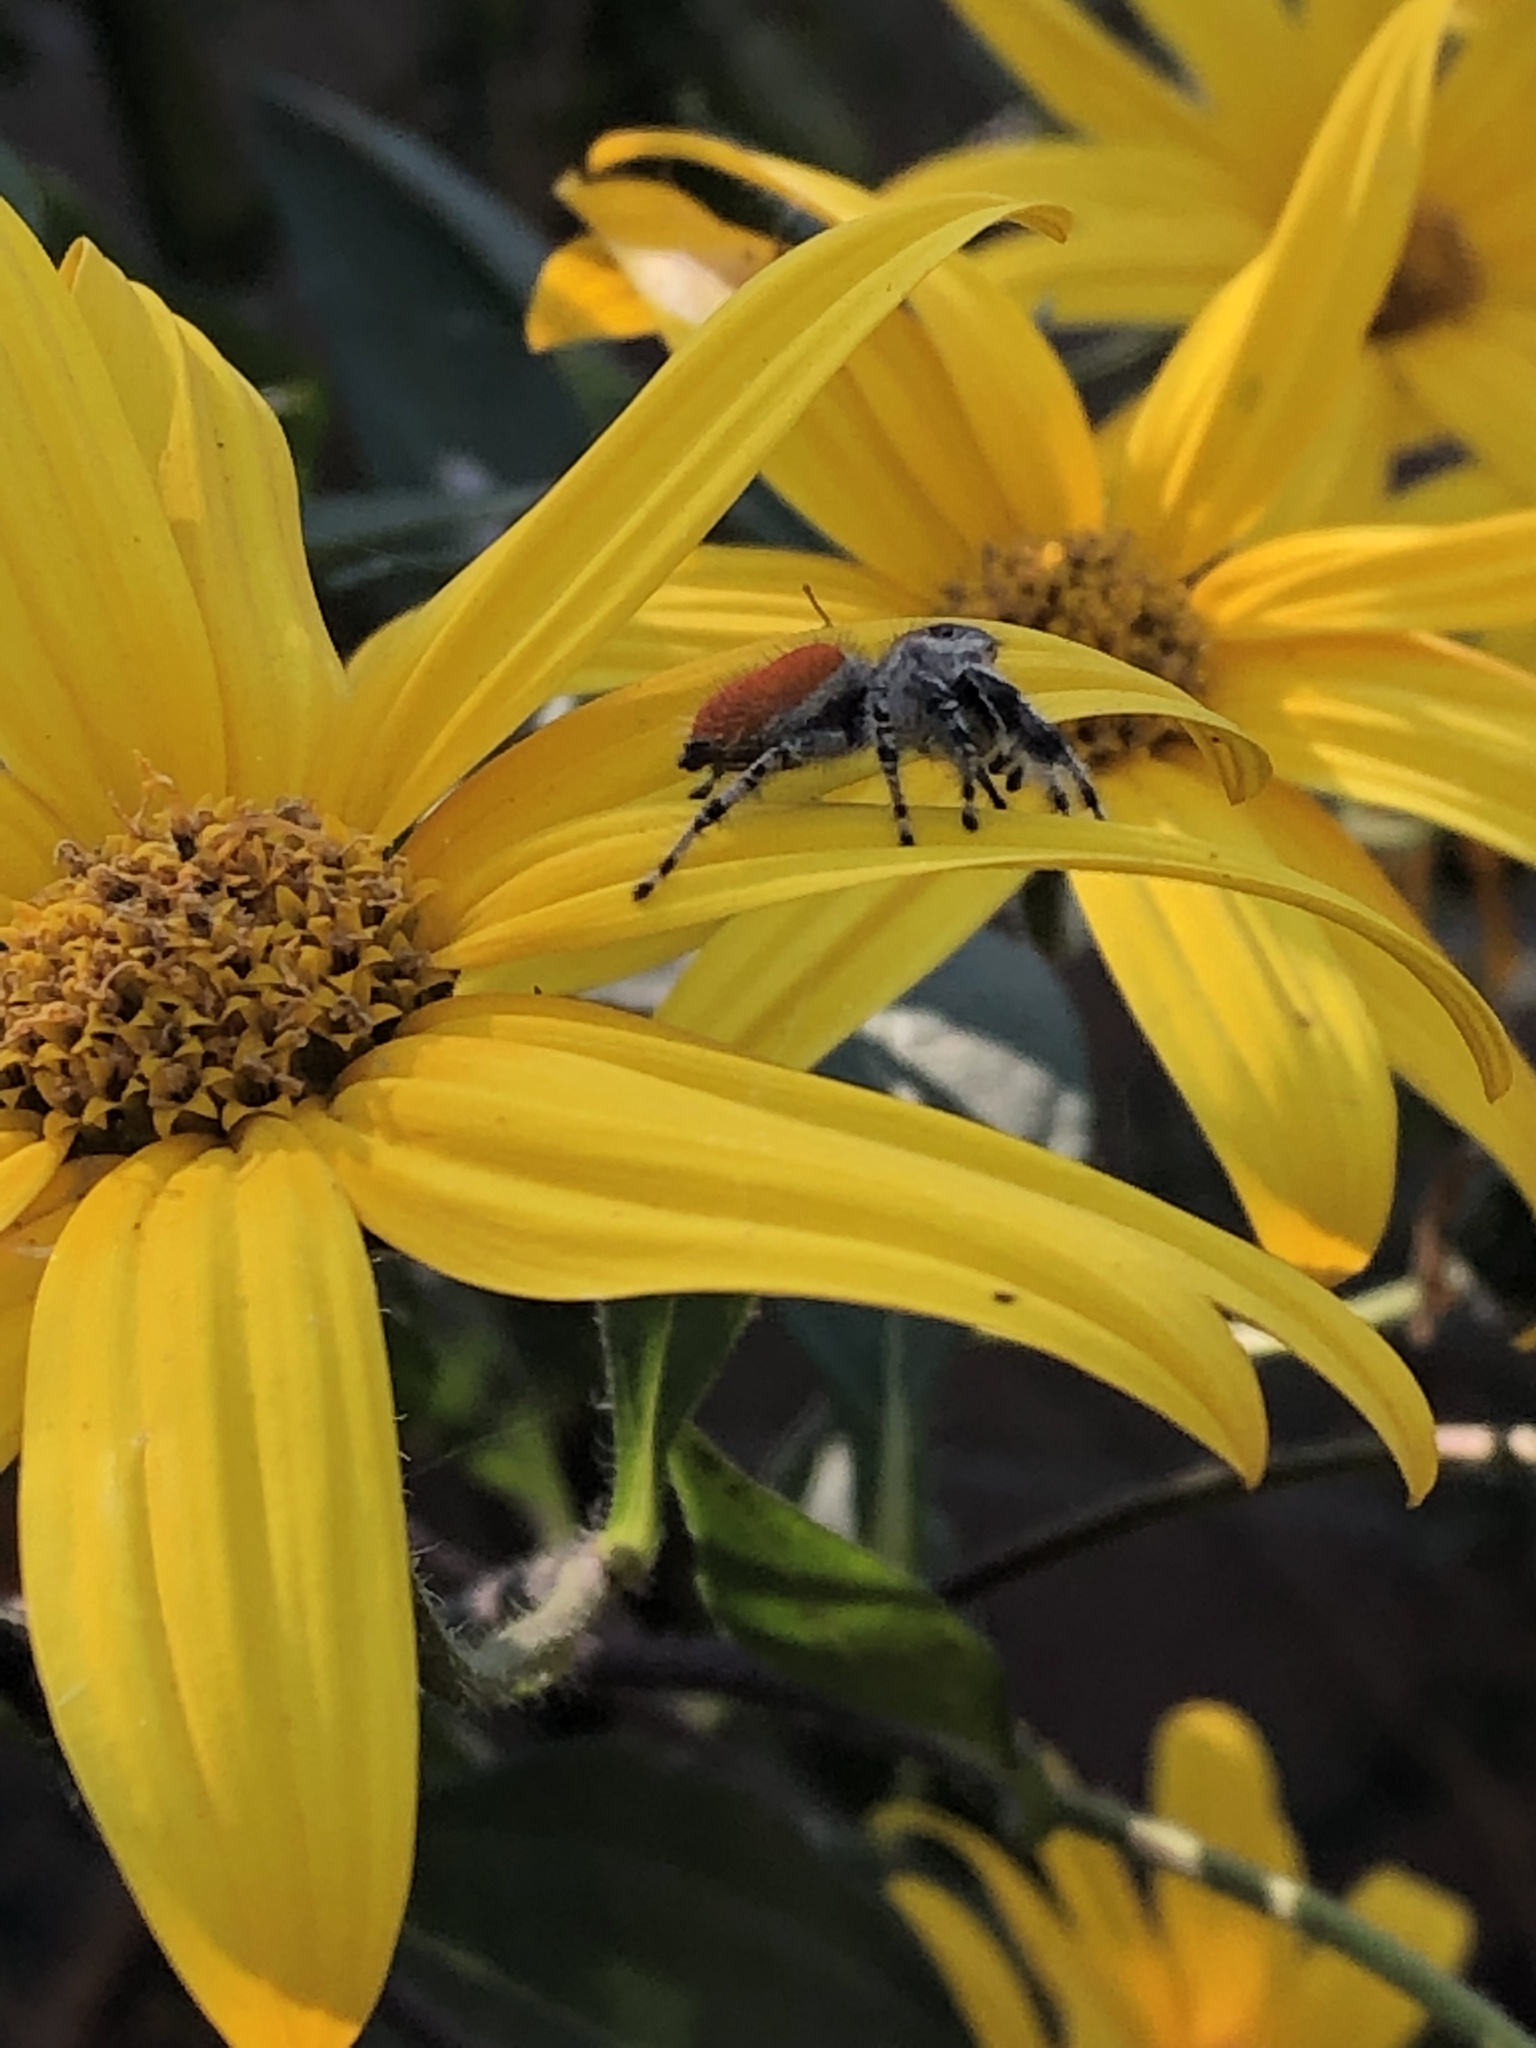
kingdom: Animalia
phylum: Arthropoda
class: Arachnida
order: Araneae
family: Salticidae
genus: Phidippus
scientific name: Phidippus adumbratus
